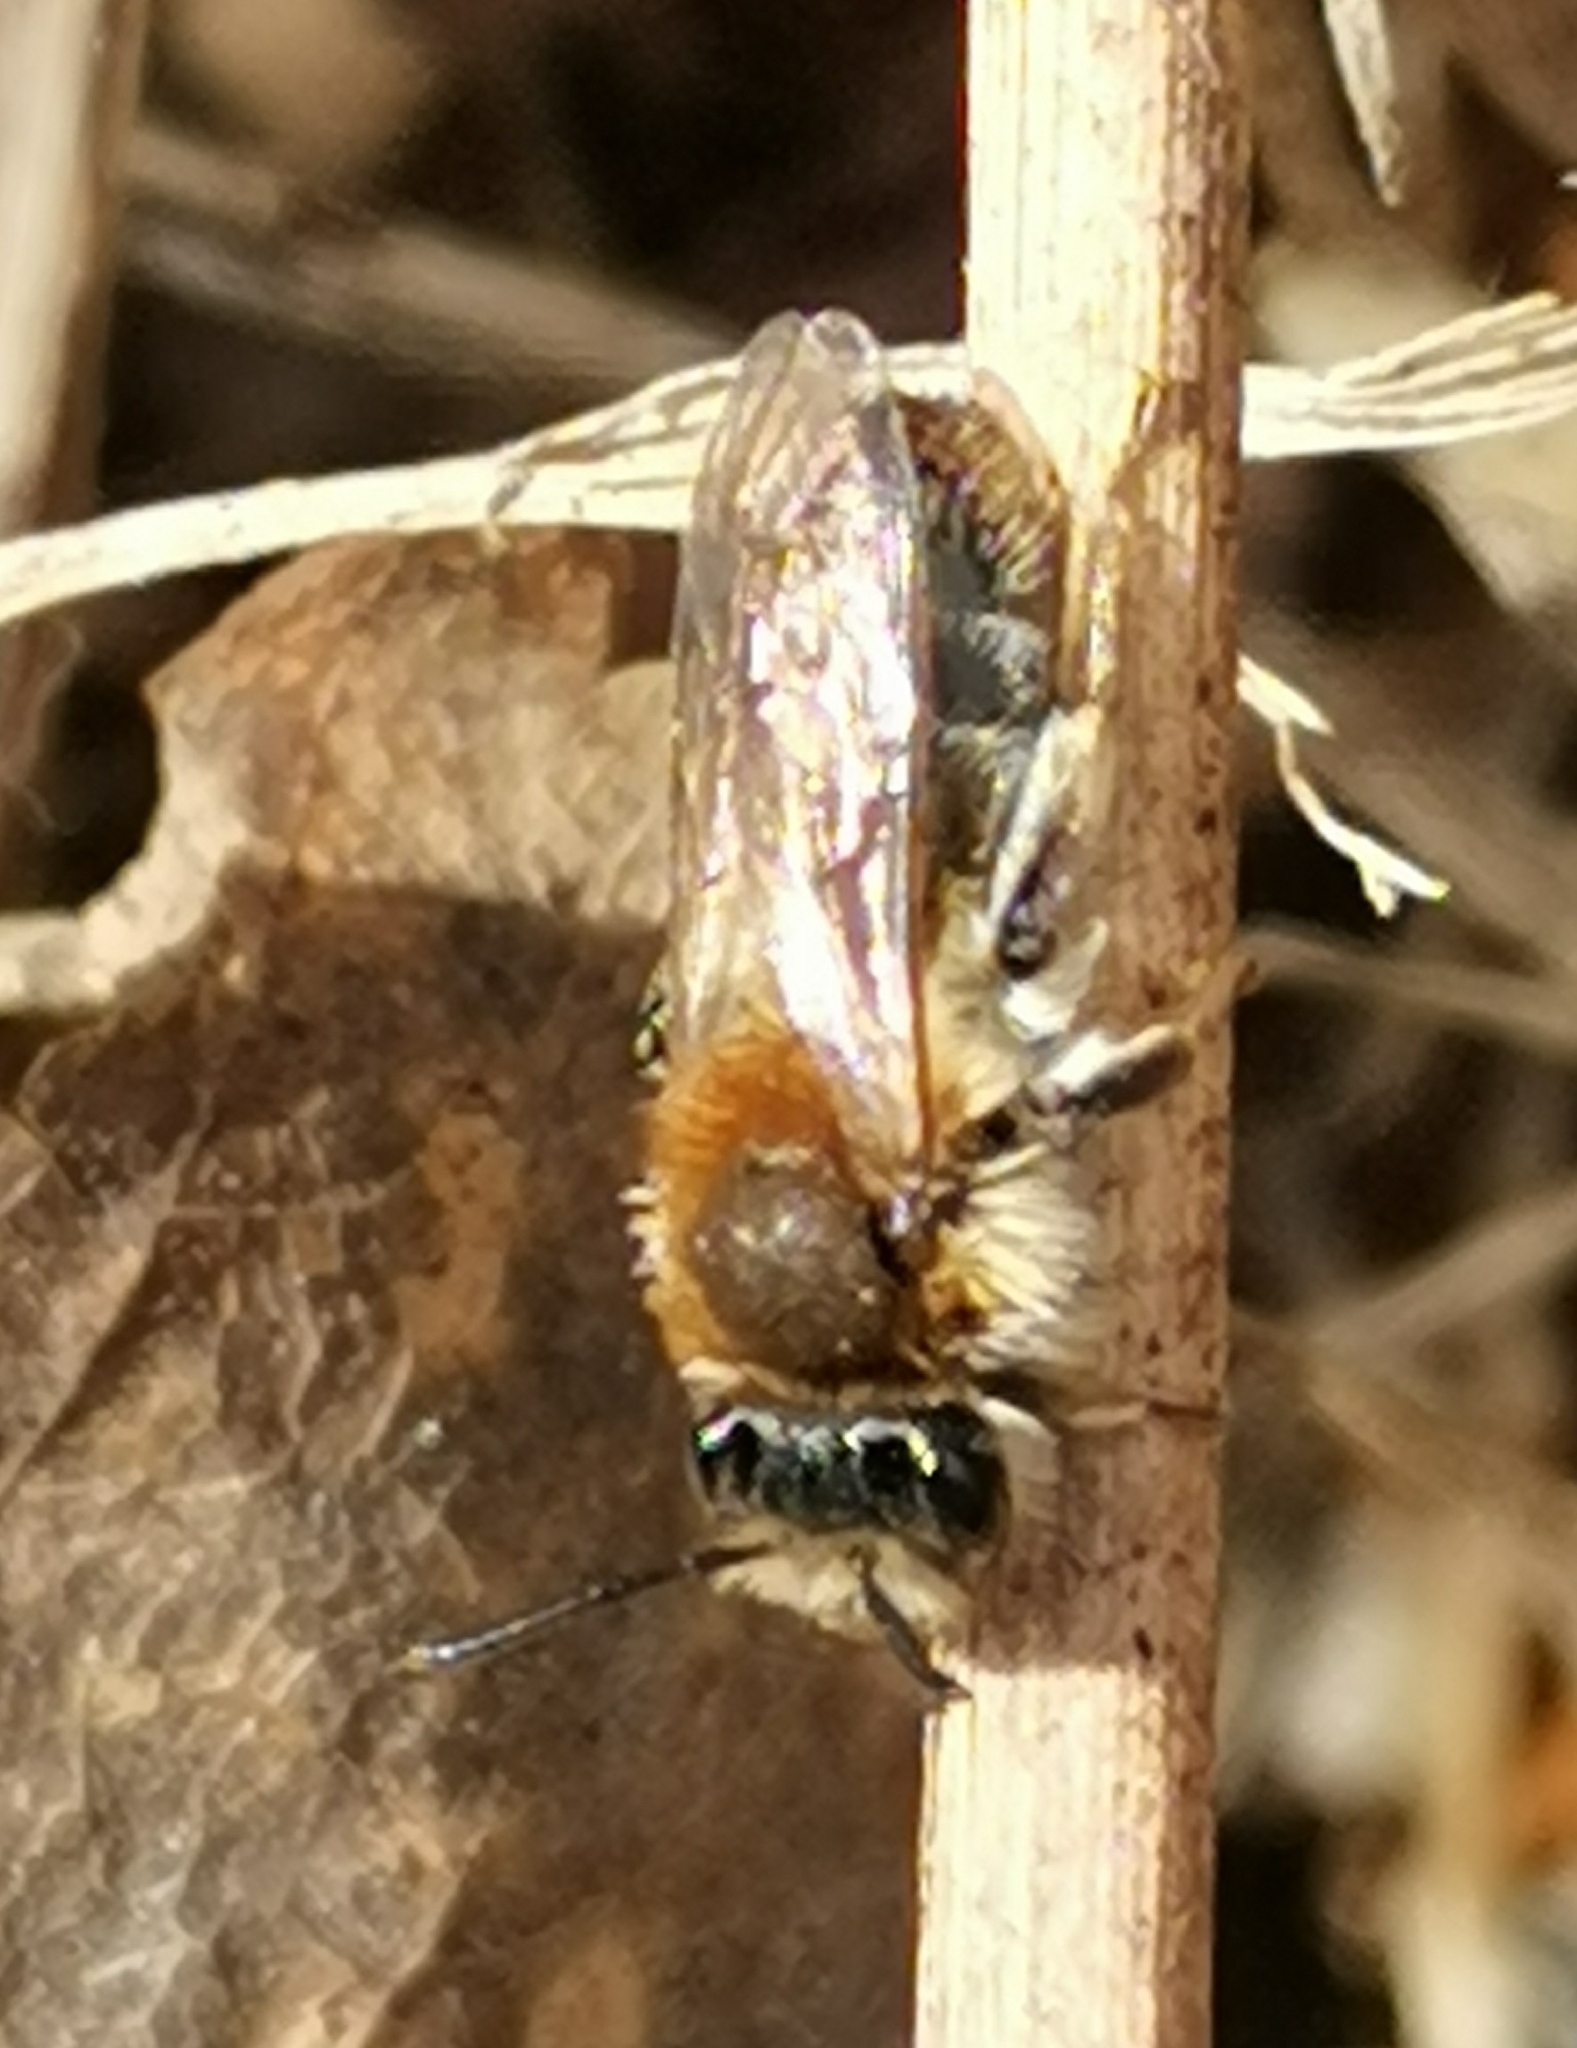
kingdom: Animalia
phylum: Arthropoda
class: Insecta
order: Hymenoptera
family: Andrenidae
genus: Andrena
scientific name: Andrena praecox
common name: Small sallow mining bee
